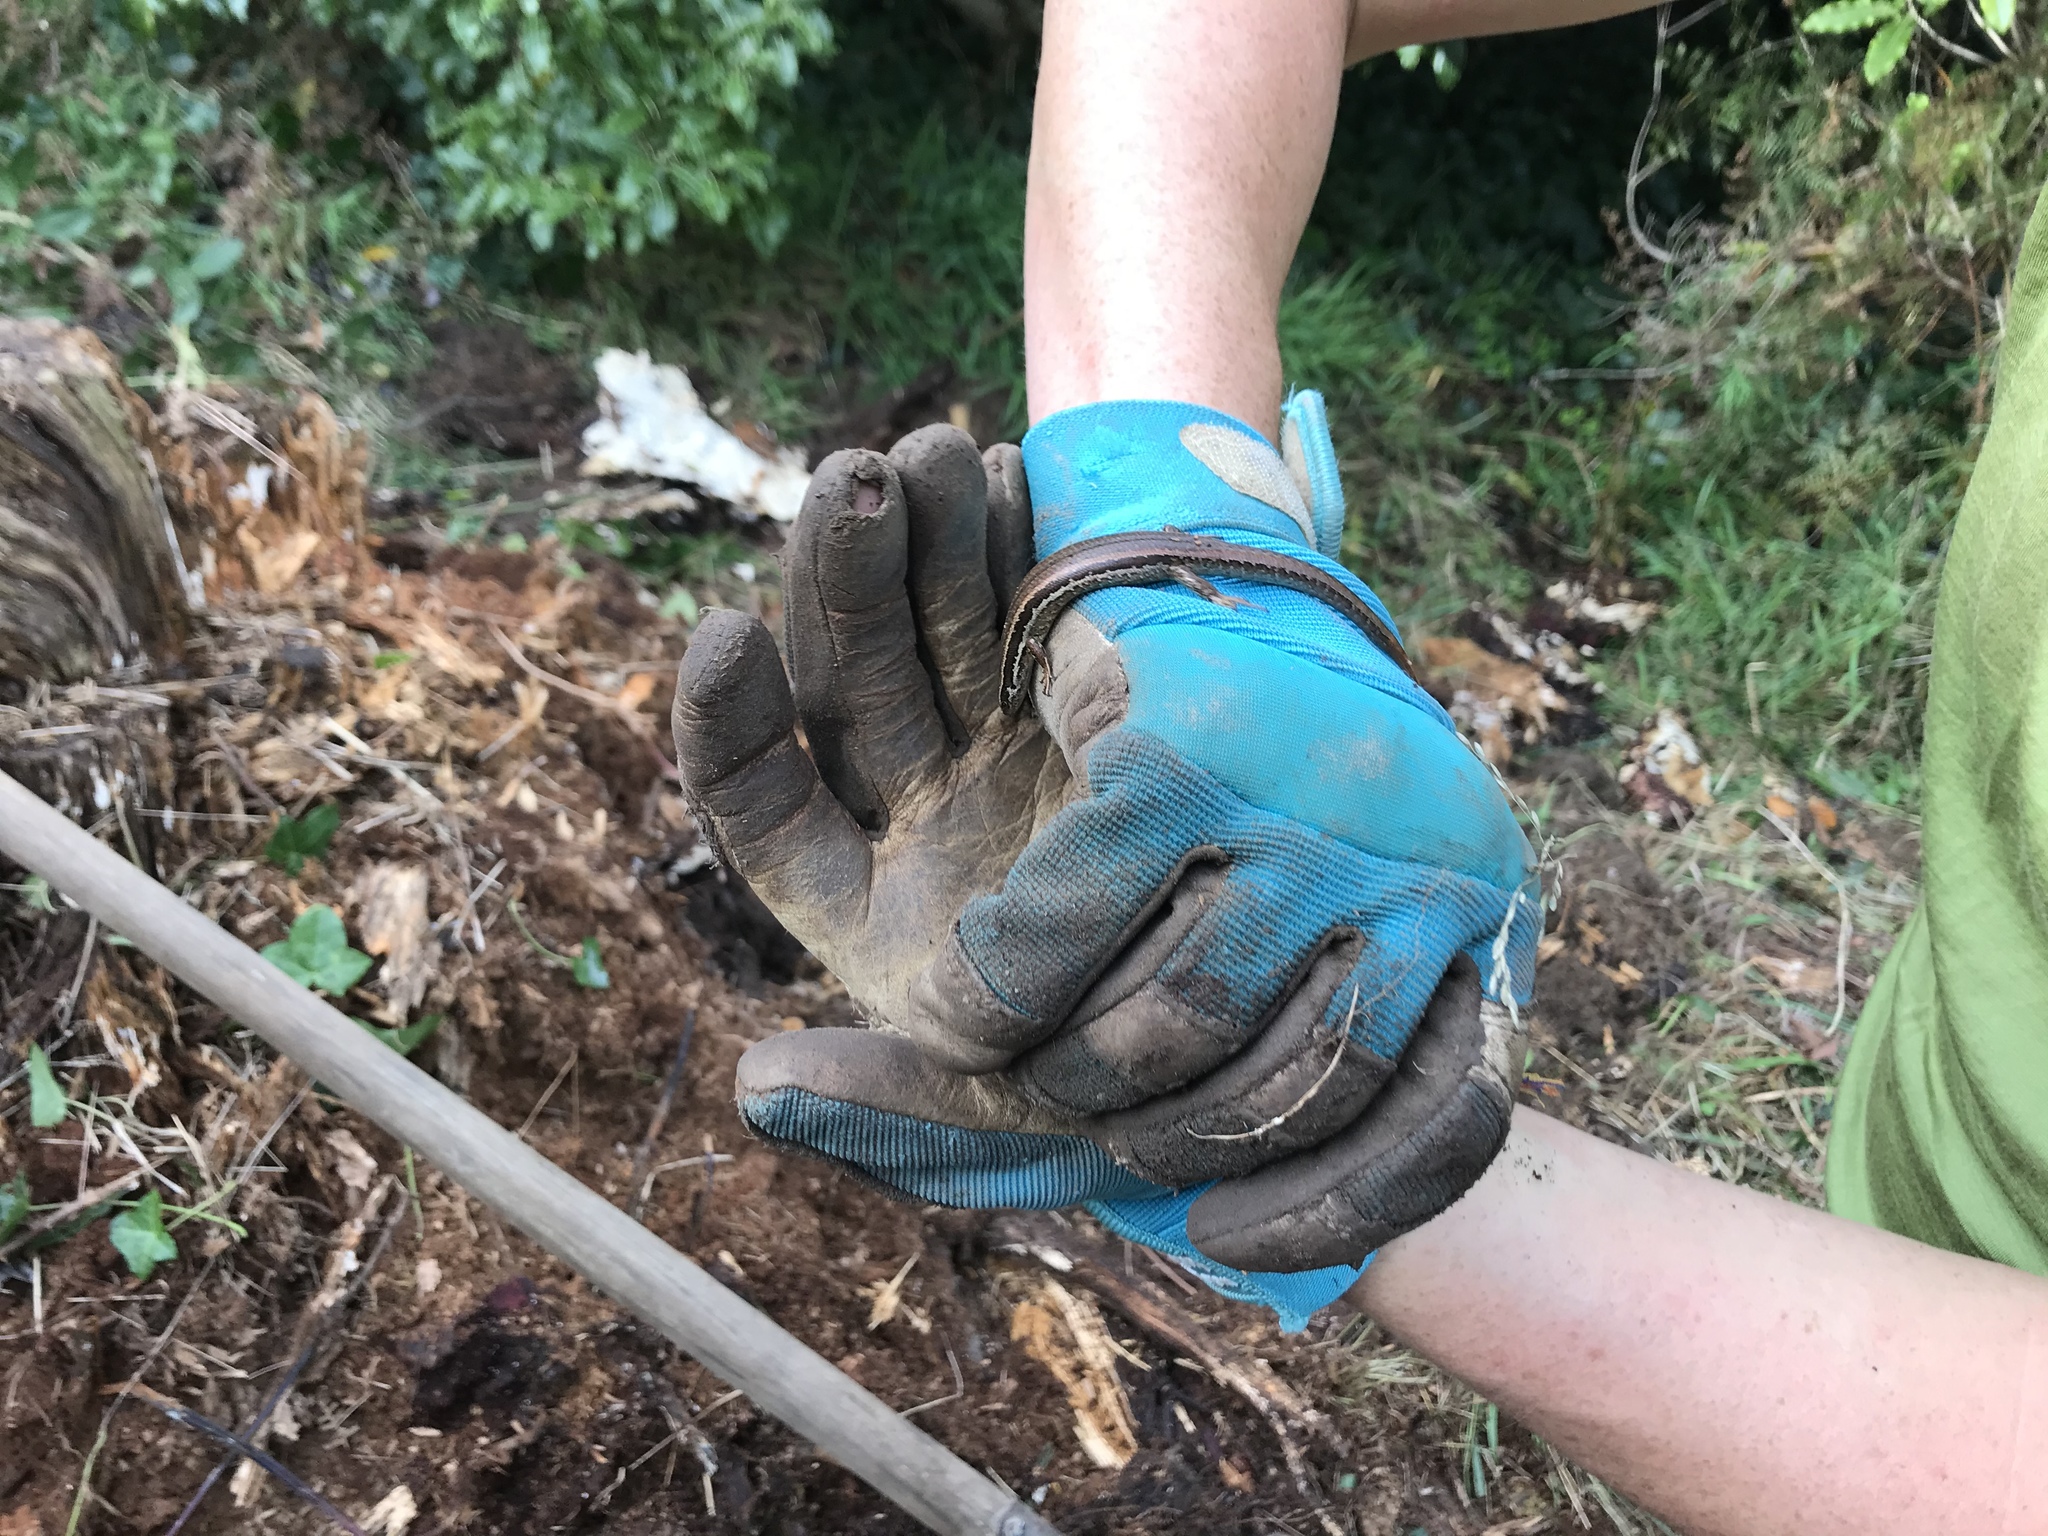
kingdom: Animalia
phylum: Chordata
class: Squamata
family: Scincidae
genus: Oligosoma
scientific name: Oligosoma polychroma
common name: Common new zealand skink
